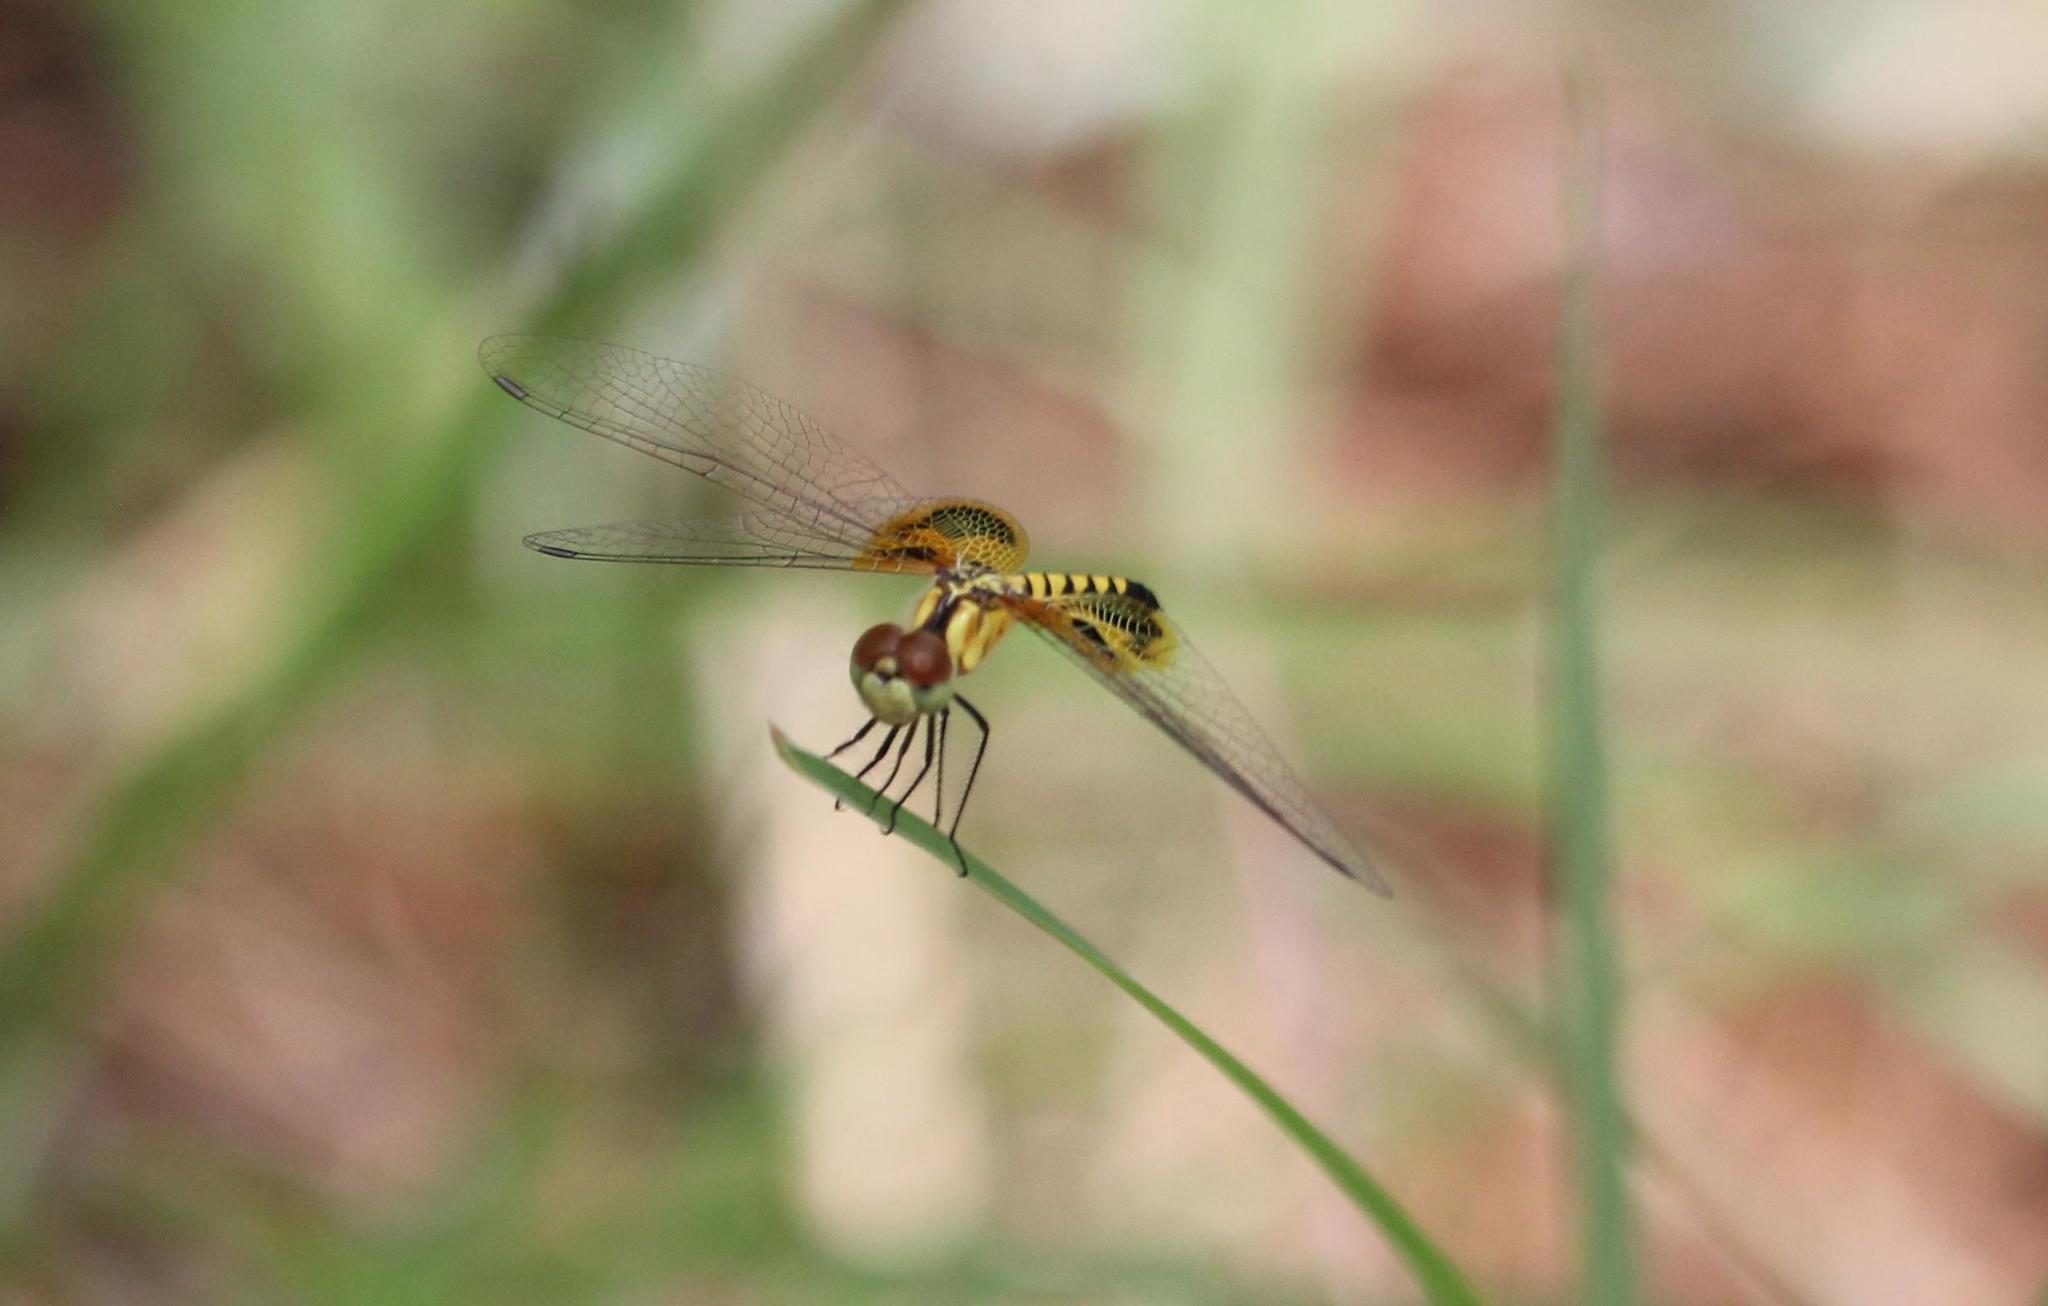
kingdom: Animalia
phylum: Arthropoda
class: Insecta
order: Odonata
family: Libellulidae
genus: Celithemis
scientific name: Celithemis amanda
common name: Amanda's pennant
